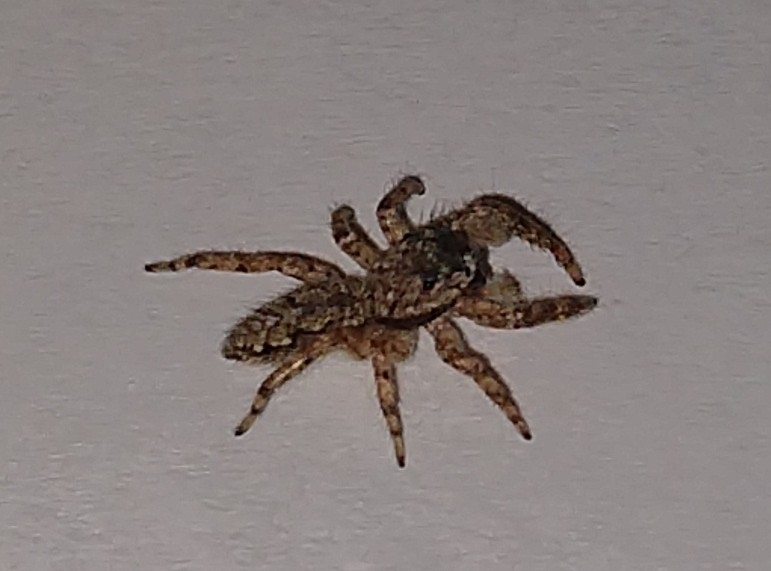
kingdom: Animalia
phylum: Arthropoda
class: Arachnida
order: Araneae
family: Salticidae
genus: Platycryptus
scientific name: Platycryptus undatus
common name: Tan jumping spider
